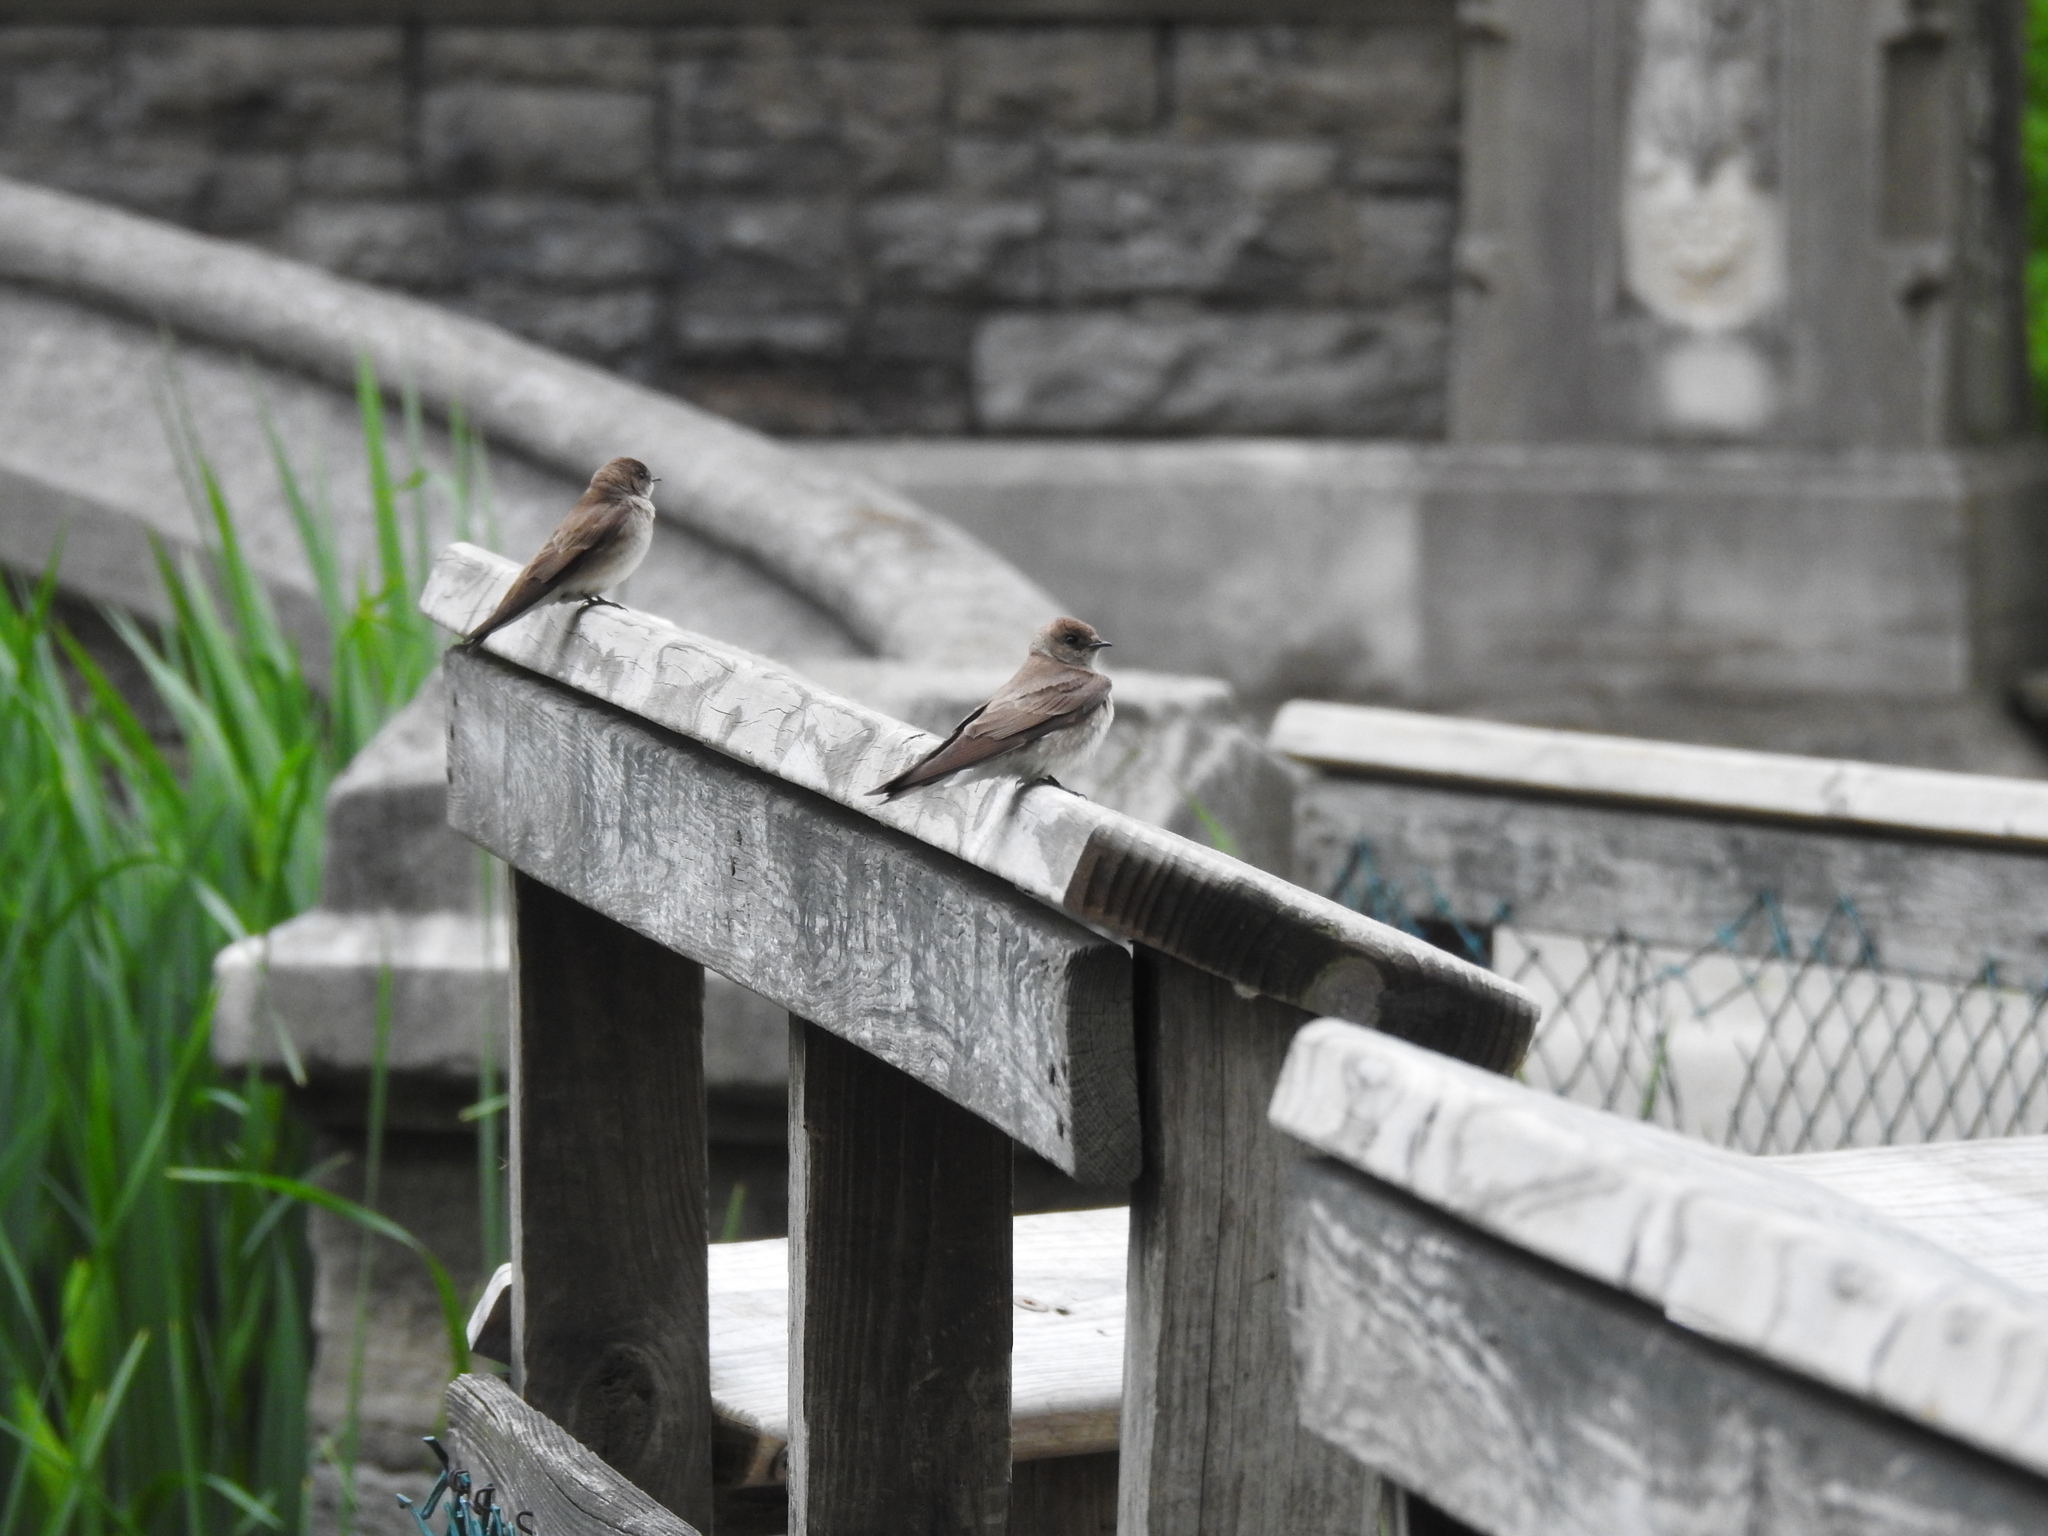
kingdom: Animalia
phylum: Chordata
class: Aves
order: Passeriformes
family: Hirundinidae
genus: Stelgidopteryx
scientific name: Stelgidopteryx serripennis
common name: Northern rough-winged swallow
